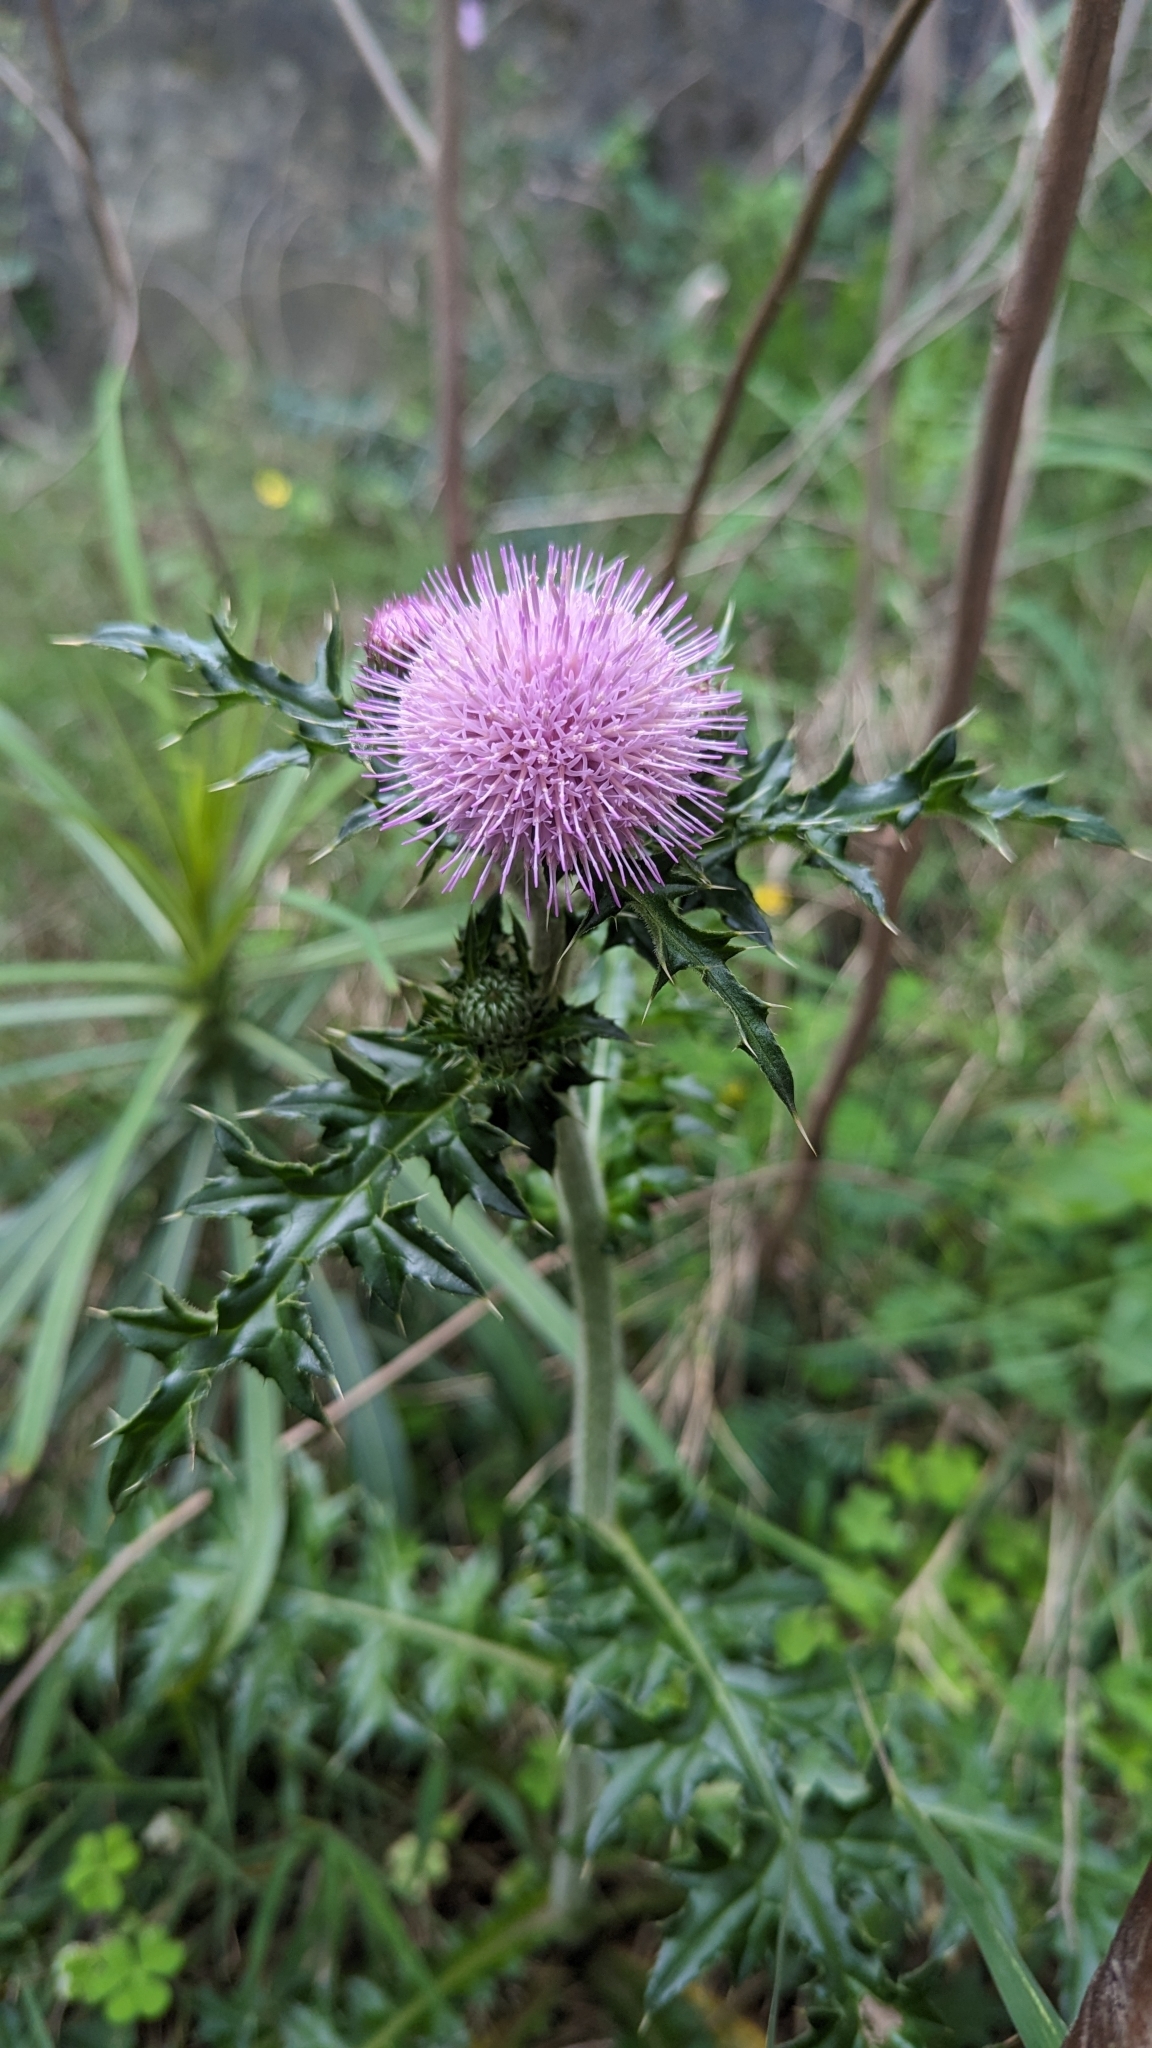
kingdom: Plantae
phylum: Tracheophyta
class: Magnoliopsida
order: Asterales
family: Asteraceae
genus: Cirsium
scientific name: Cirsium japonicum
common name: Japanese thistle
